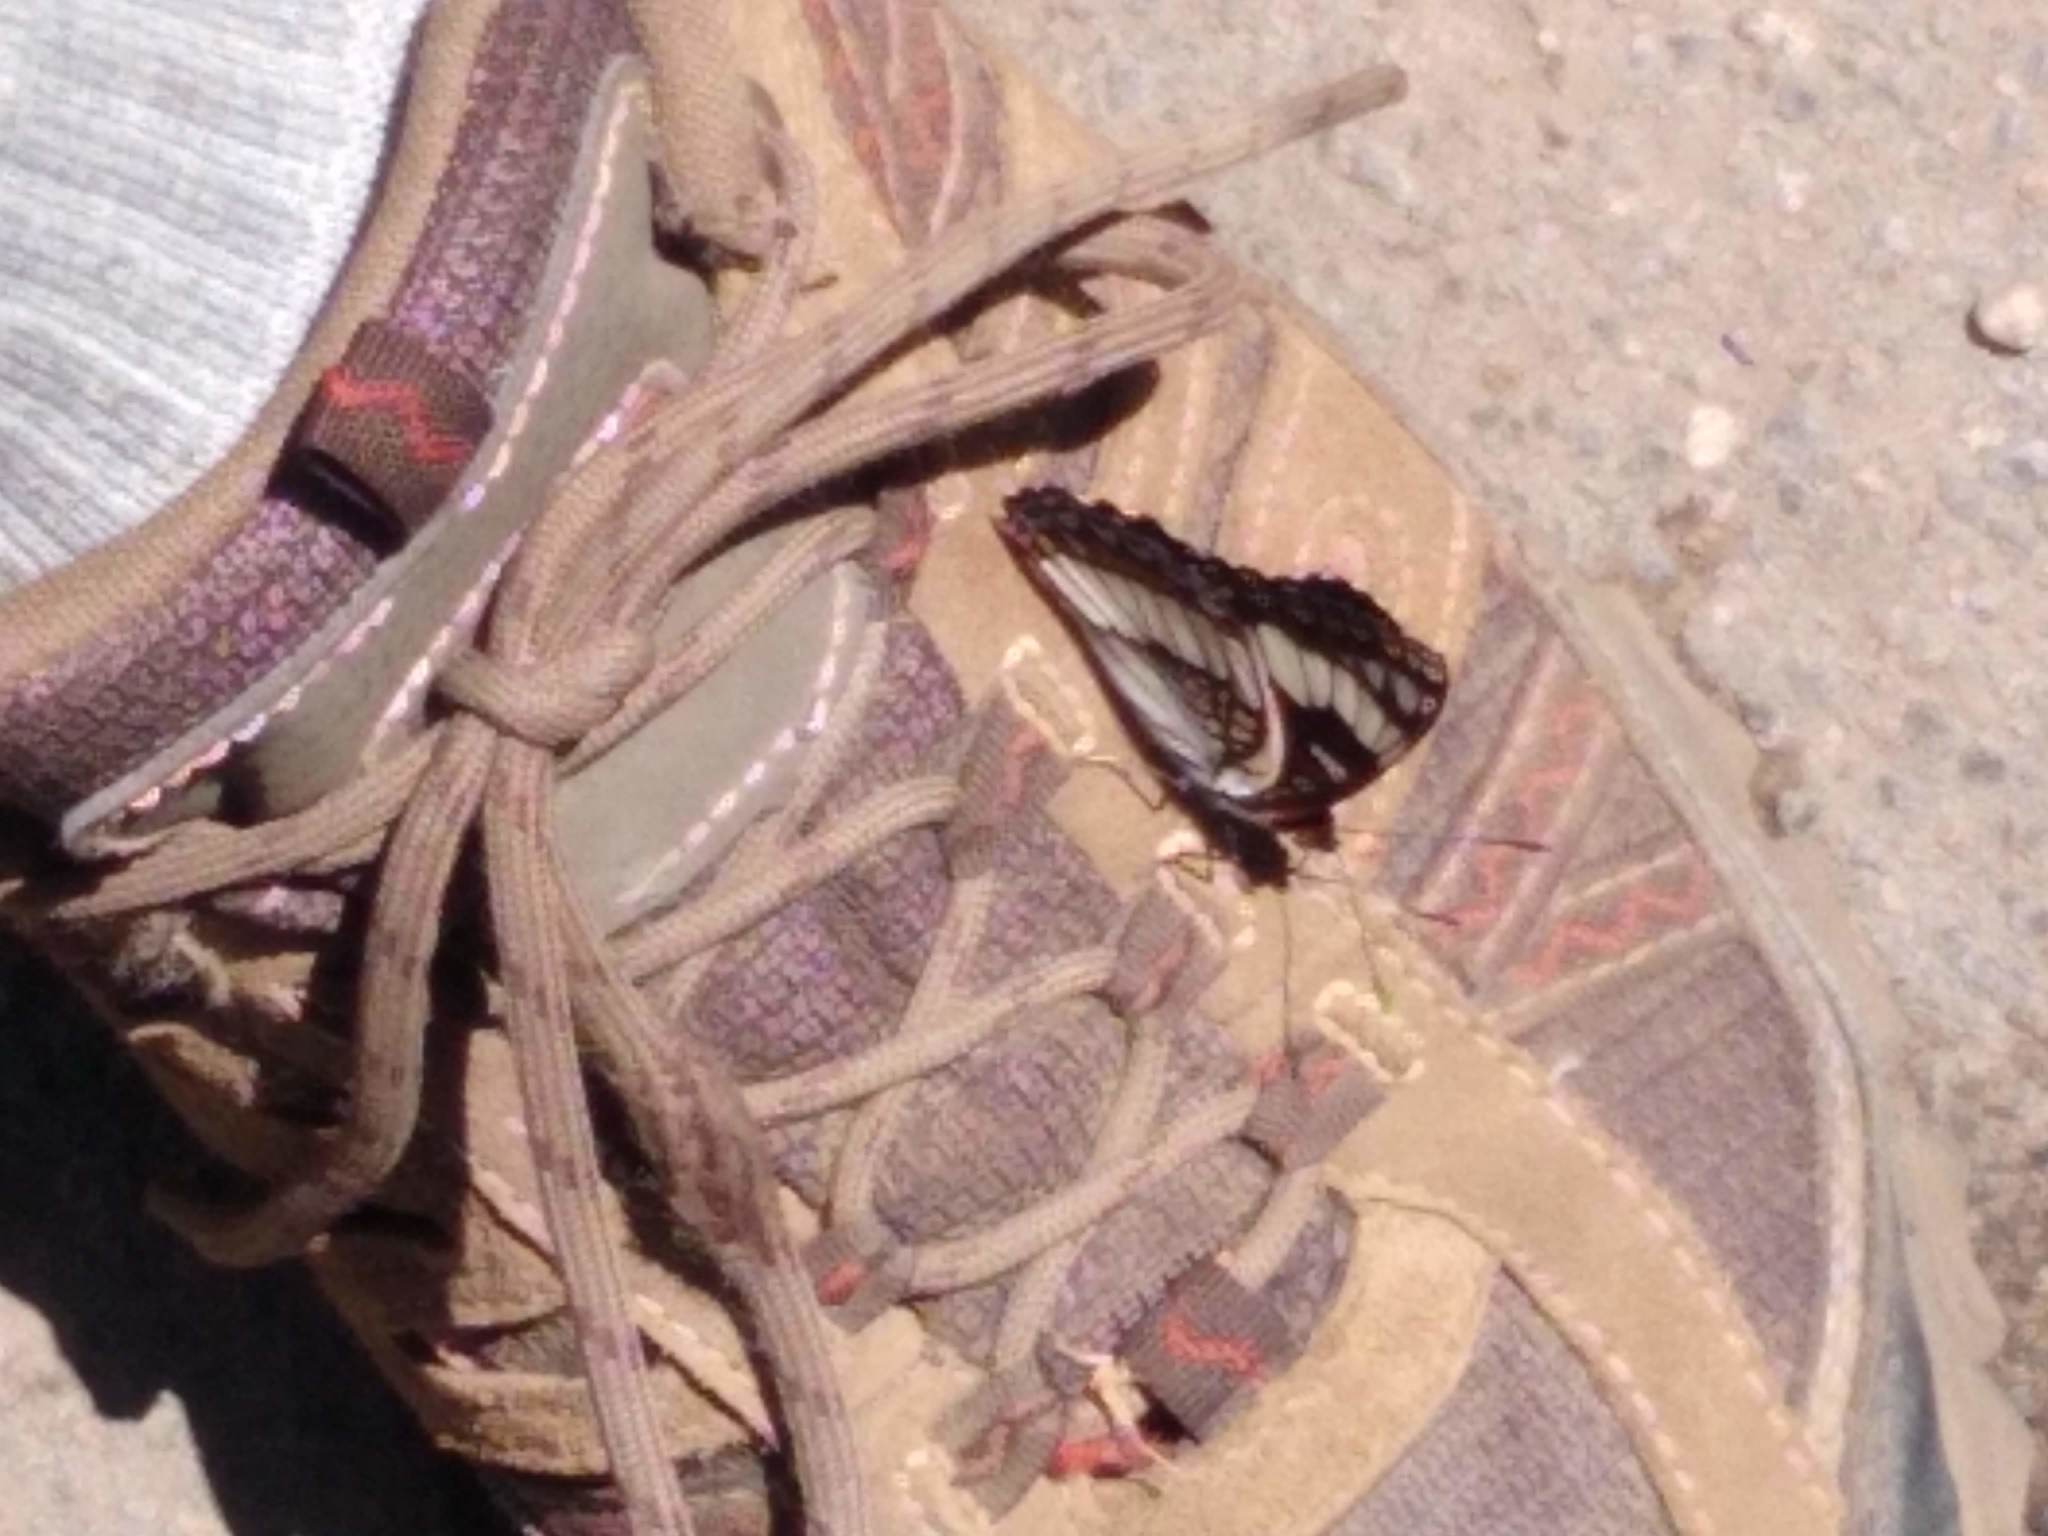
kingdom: Animalia
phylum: Arthropoda
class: Insecta
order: Lepidoptera
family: Nymphalidae
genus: Limenitis
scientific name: Limenitis weidemeyerii
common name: Weidemeyer's admiral
